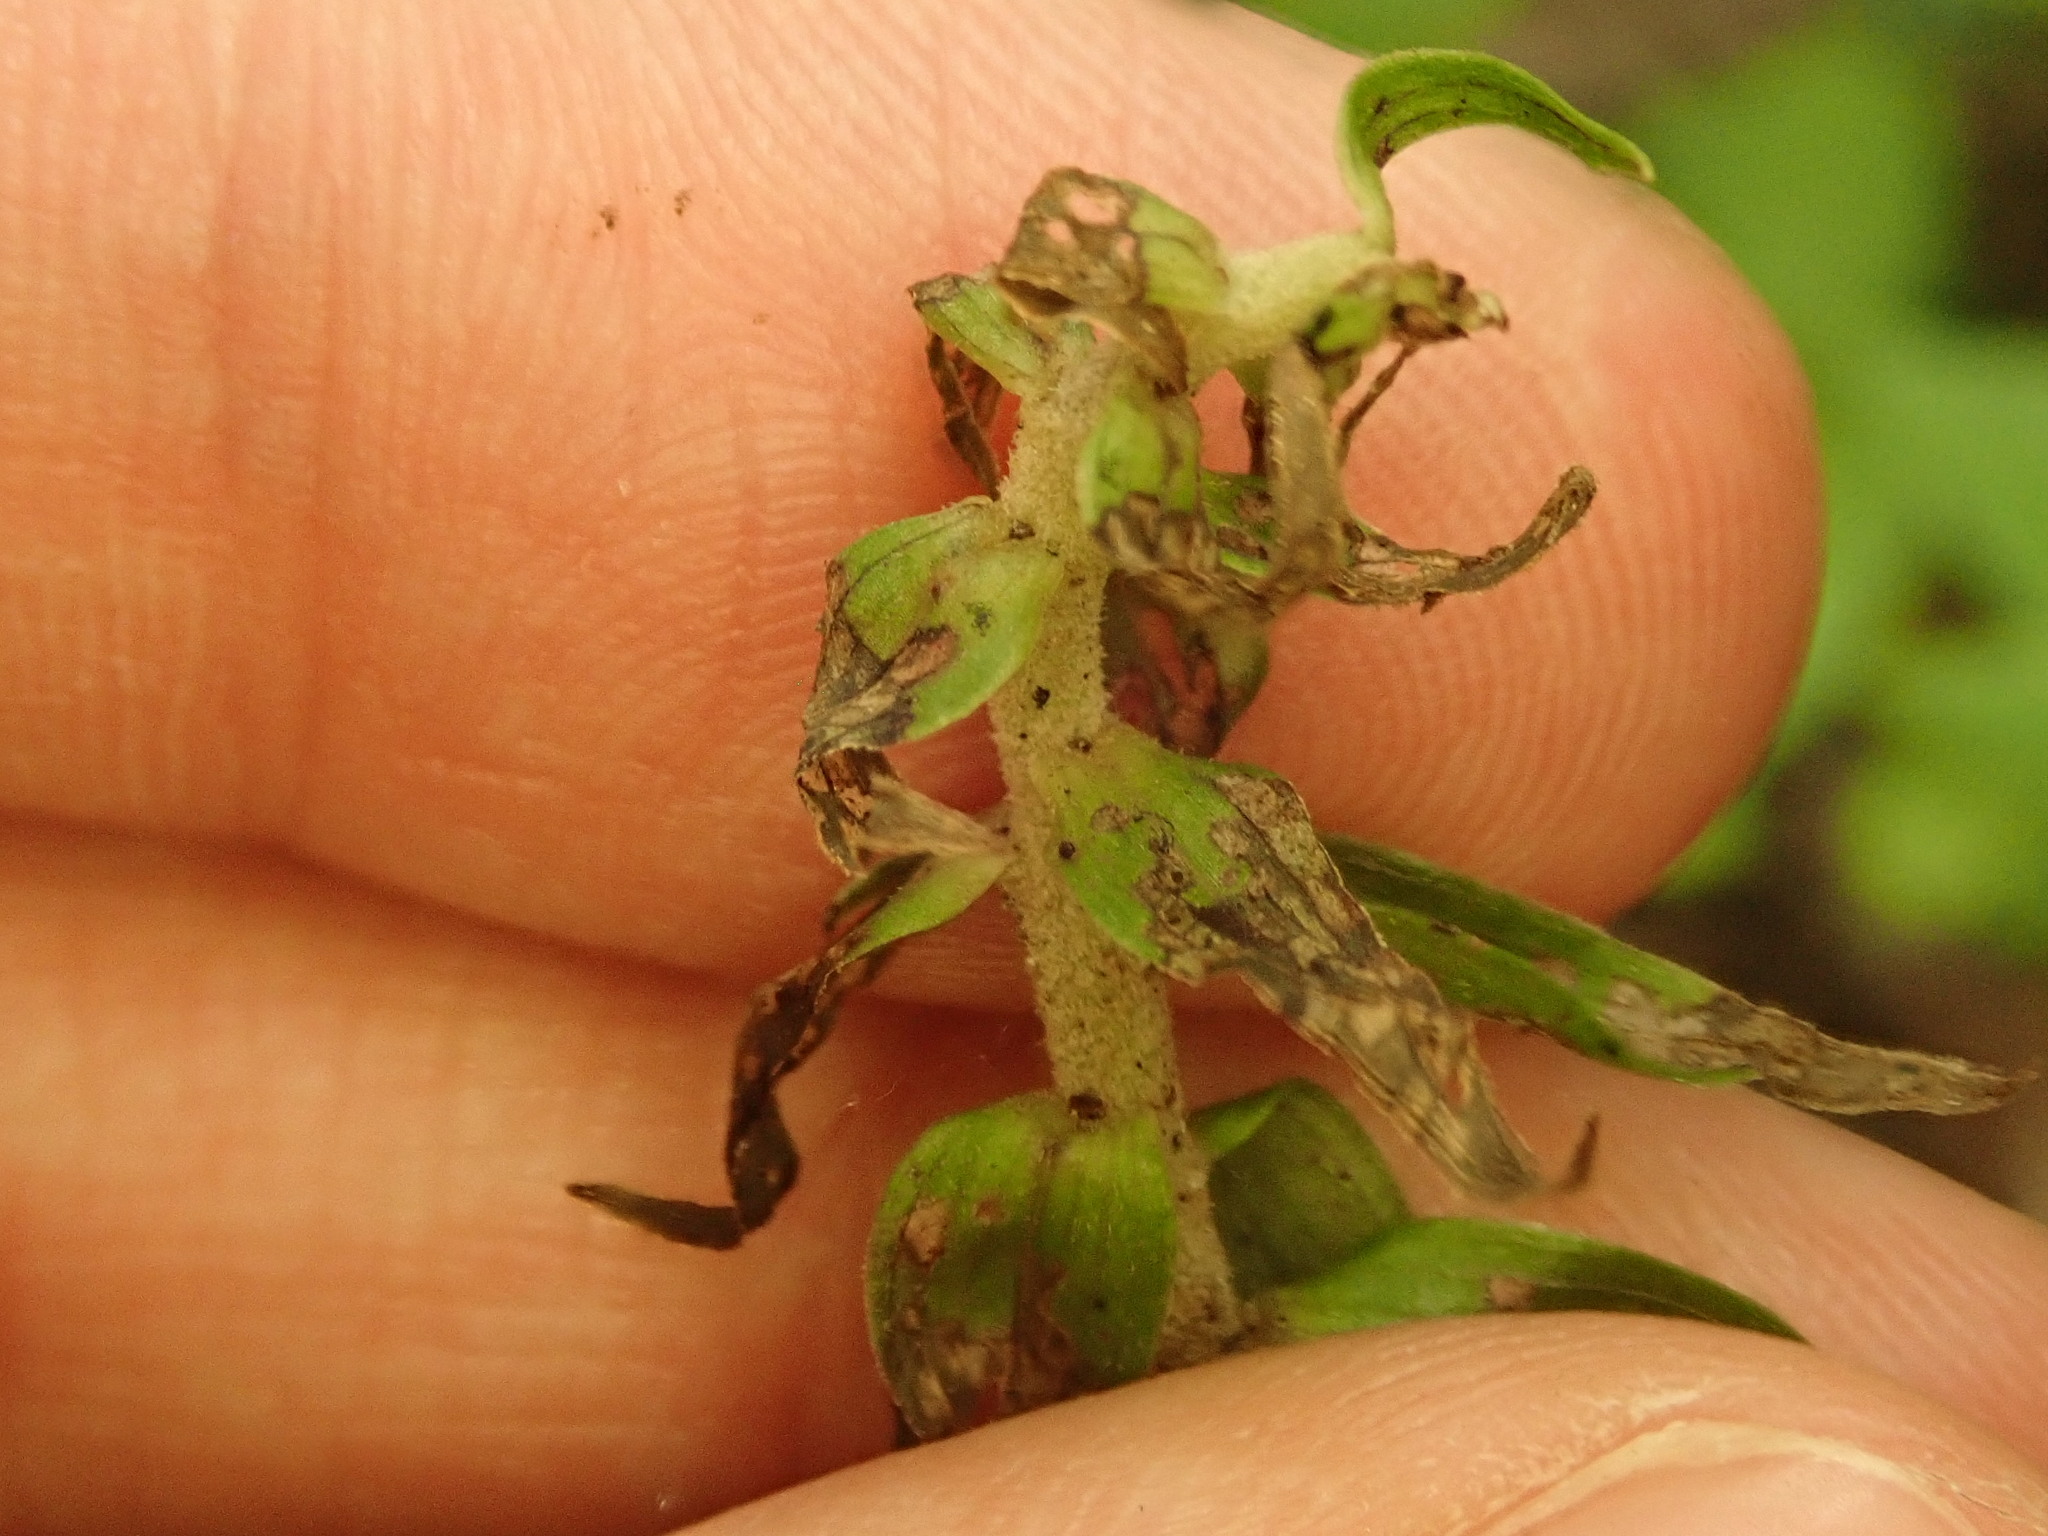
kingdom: Plantae
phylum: Tracheophyta
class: Liliopsida
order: Asparagales
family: Orchidaceae
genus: Epipactis
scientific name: Epipactis helleborine
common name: Broad-leaved helleborine
